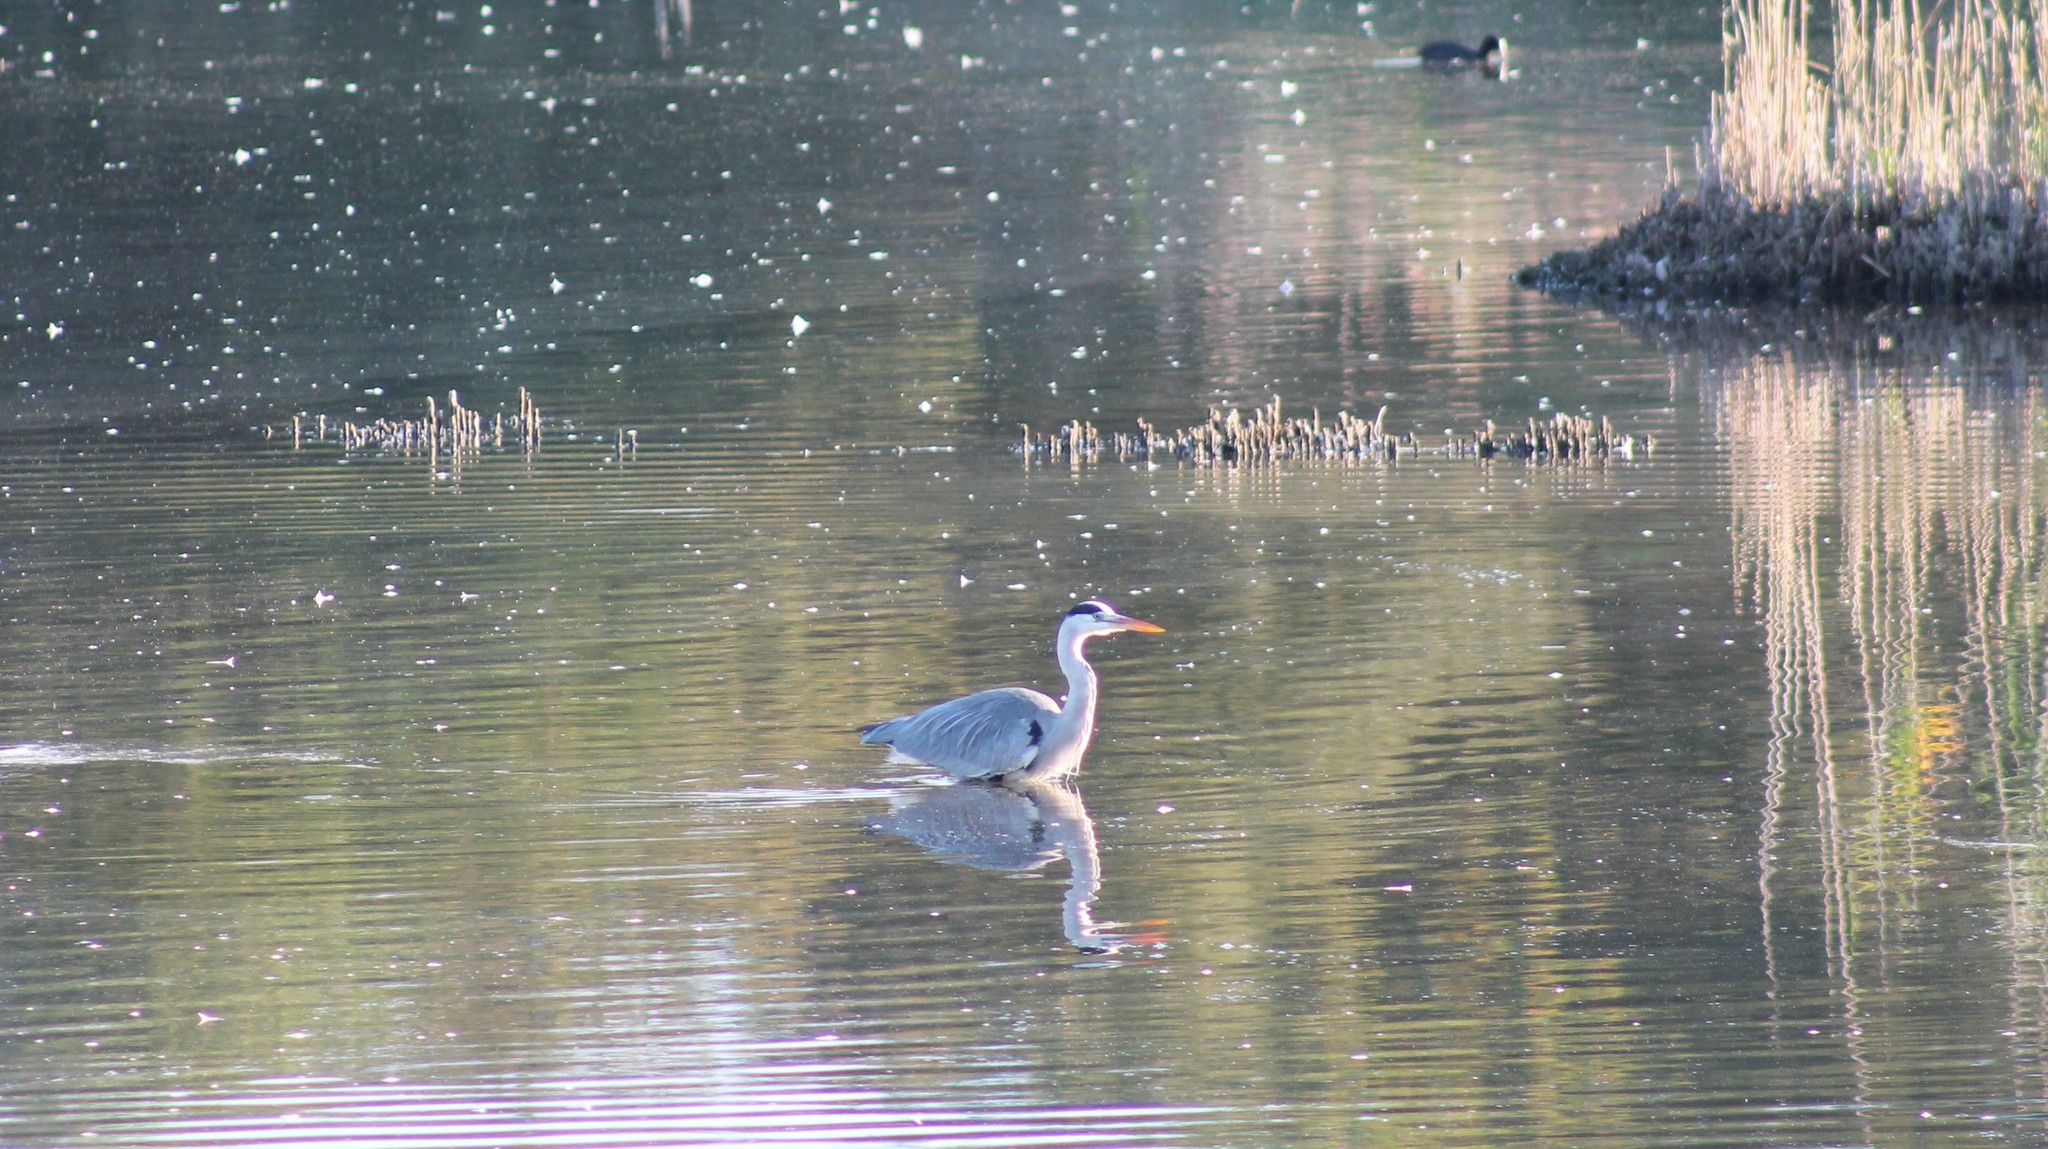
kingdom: Animalia
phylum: Chordata
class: Aves
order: Pelecaniformes
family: Ardeidae
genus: Ardea
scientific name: Ardea cinerea
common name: Grey heron
